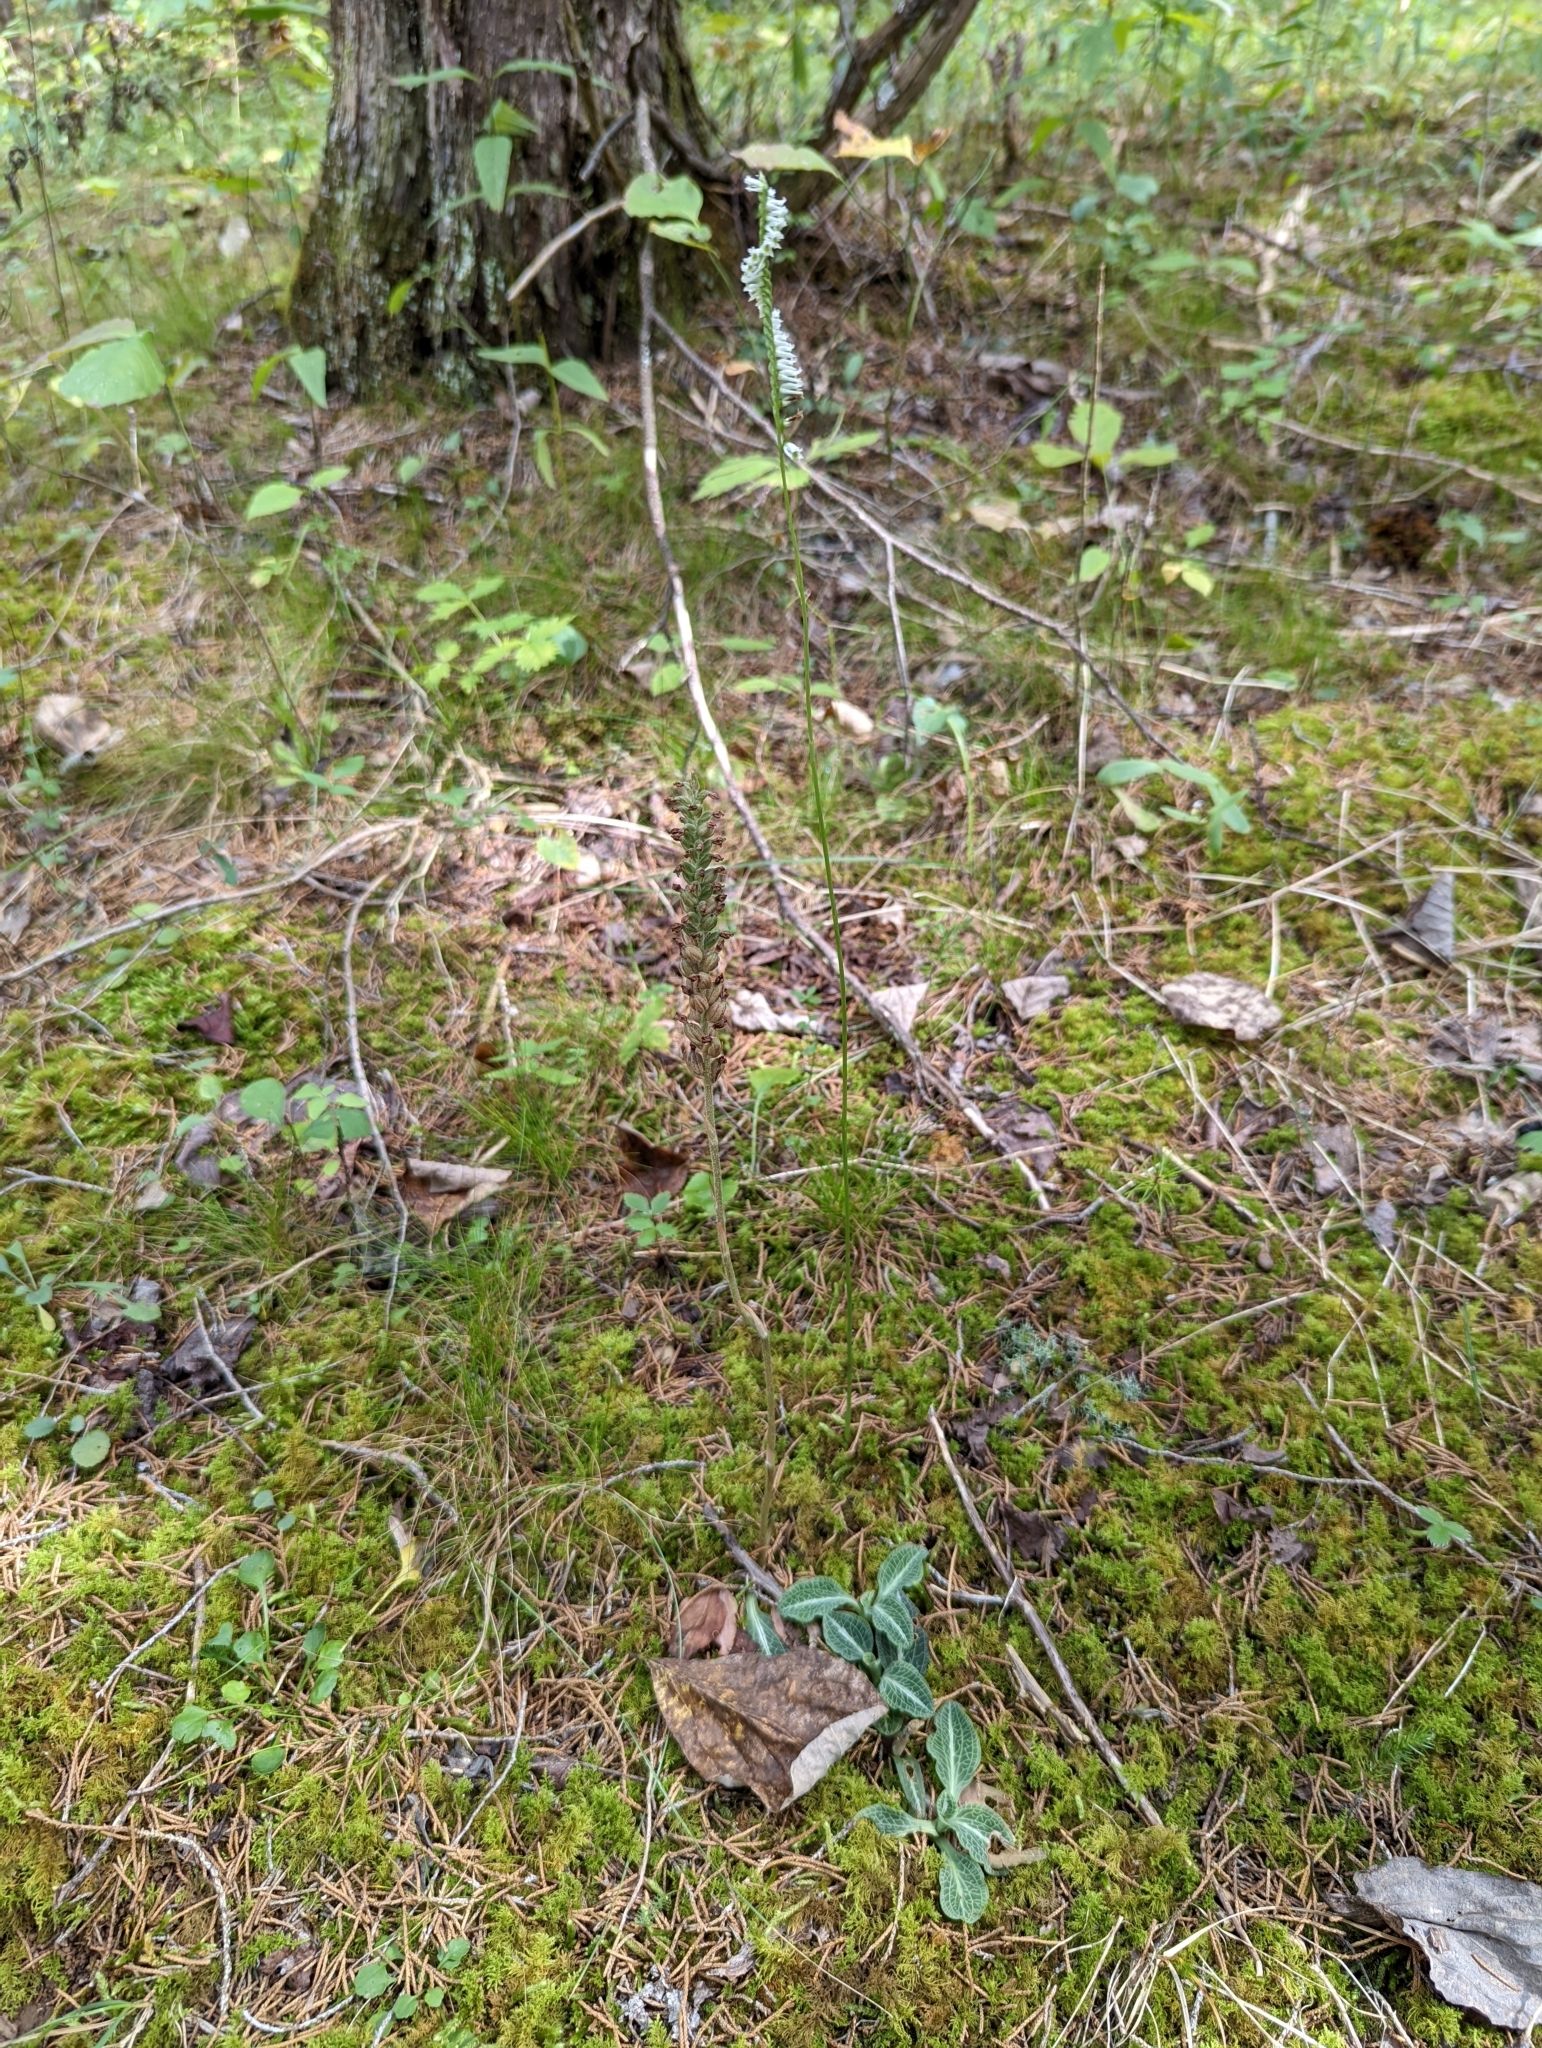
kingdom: Plantae
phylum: Tracheophyta
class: Liliopsida
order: Asparagales
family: Orchidaceae
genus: Spiranthes
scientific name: Spiranthes lacera
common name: Northern slender ladies'-tresses
